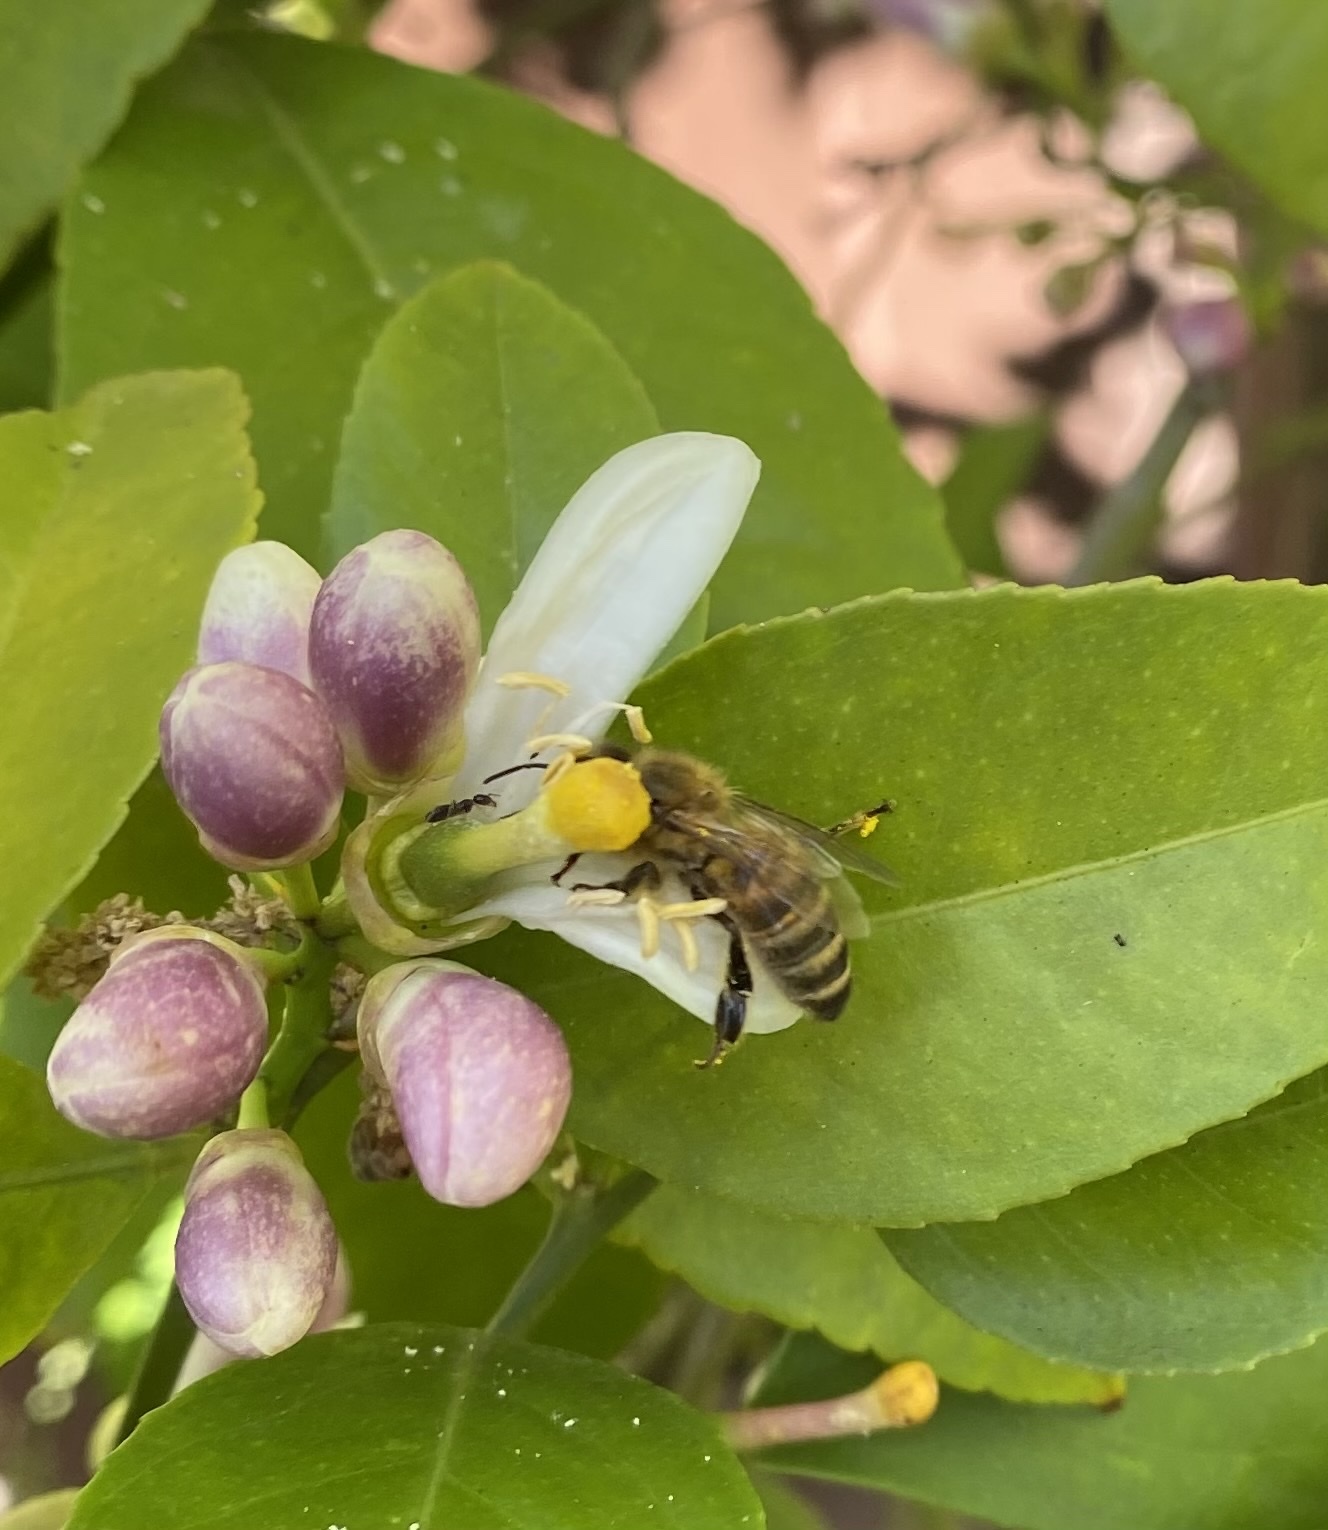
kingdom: Animalia
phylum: Arthropoda
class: Insecta
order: Hymenoptera
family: Apidae
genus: Apis
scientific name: Apis mellifera
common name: Honey bee
